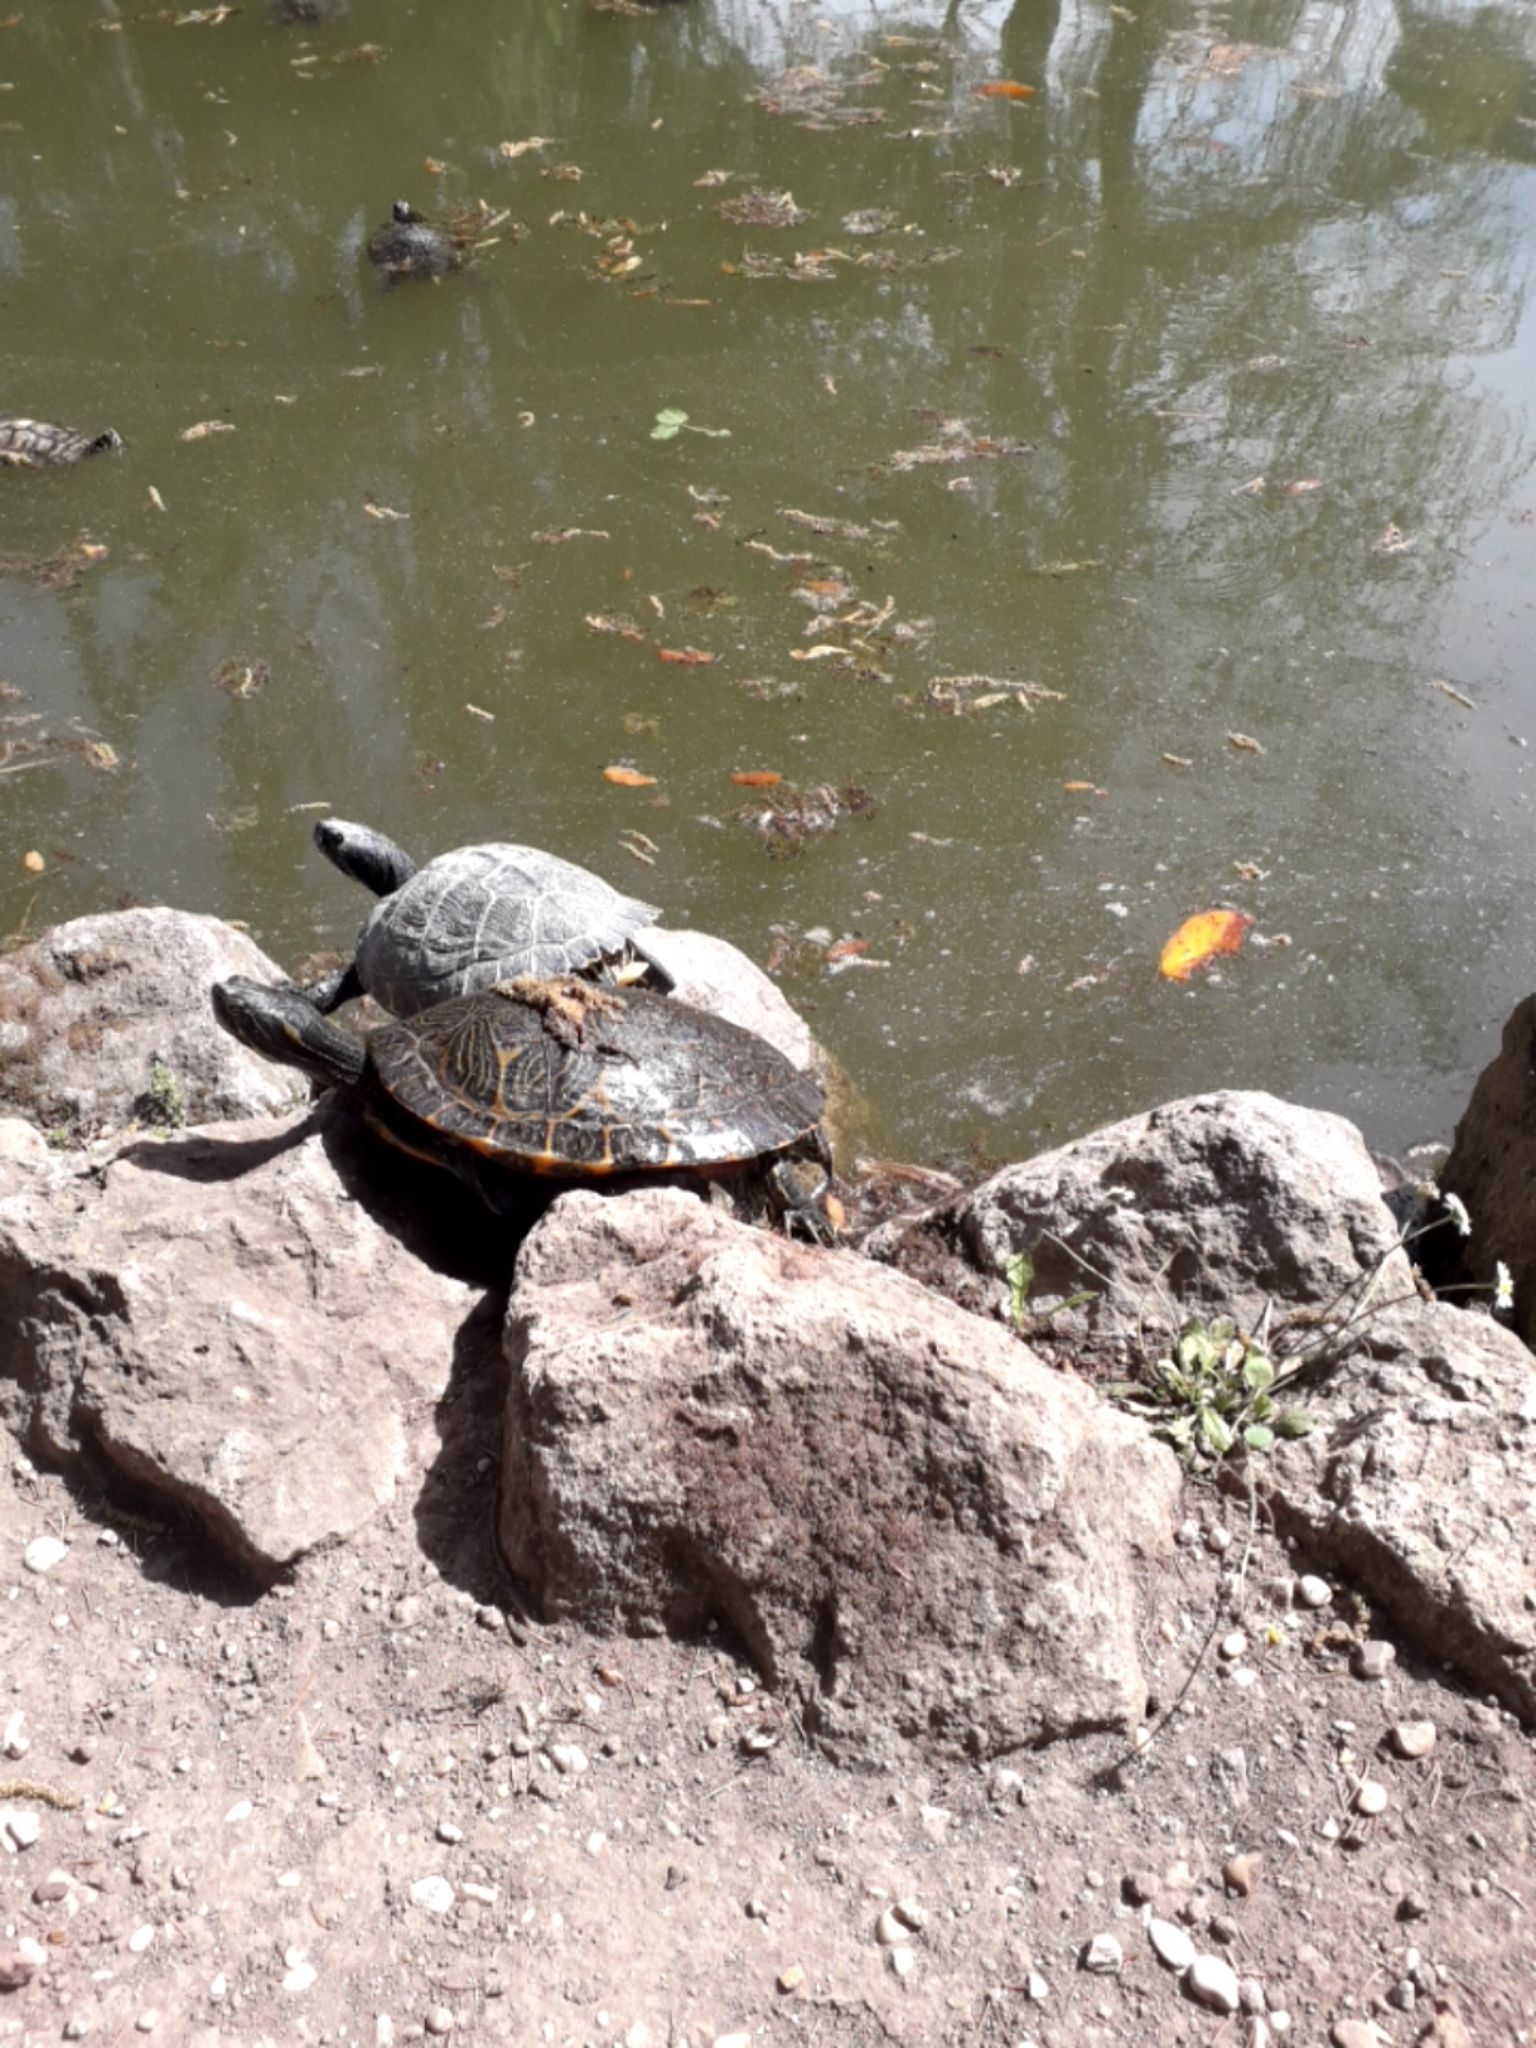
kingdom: Animalia
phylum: Chordata
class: Testudines
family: Emydidae
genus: Pseudemys
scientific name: Pseudemys concinna
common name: Eastern river cooter
